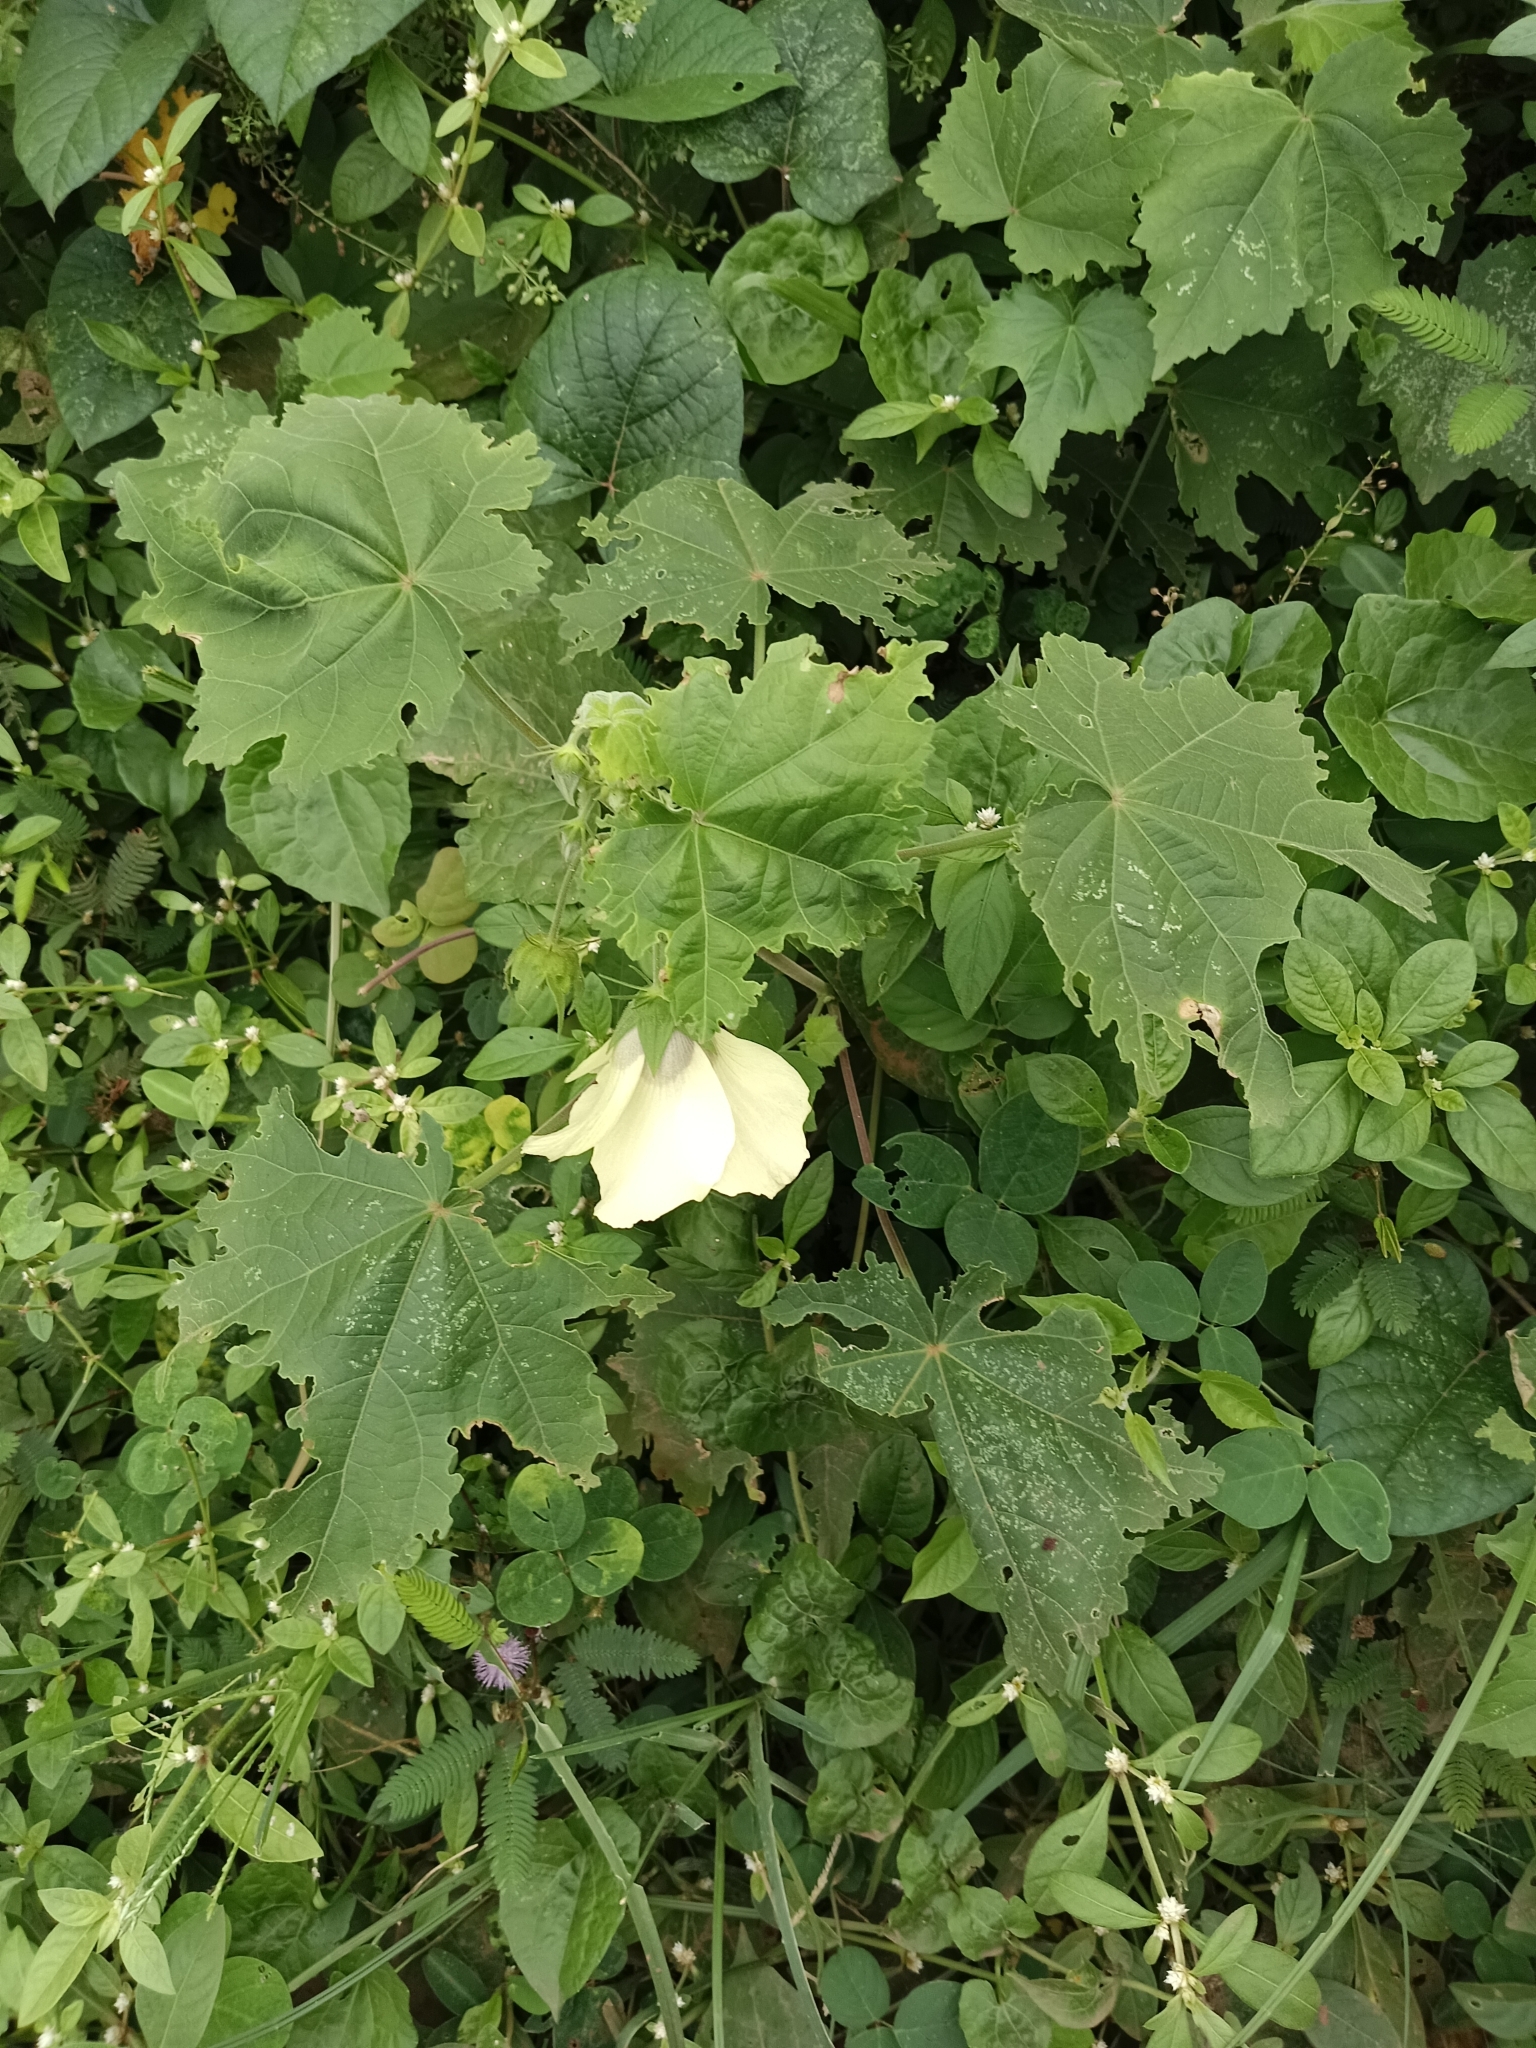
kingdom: Plantae
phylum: Tracheophyta
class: Magnoliopsida
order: Malvales
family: Malvaceae
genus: Hibiscus
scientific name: Hibiscus vitifolius
